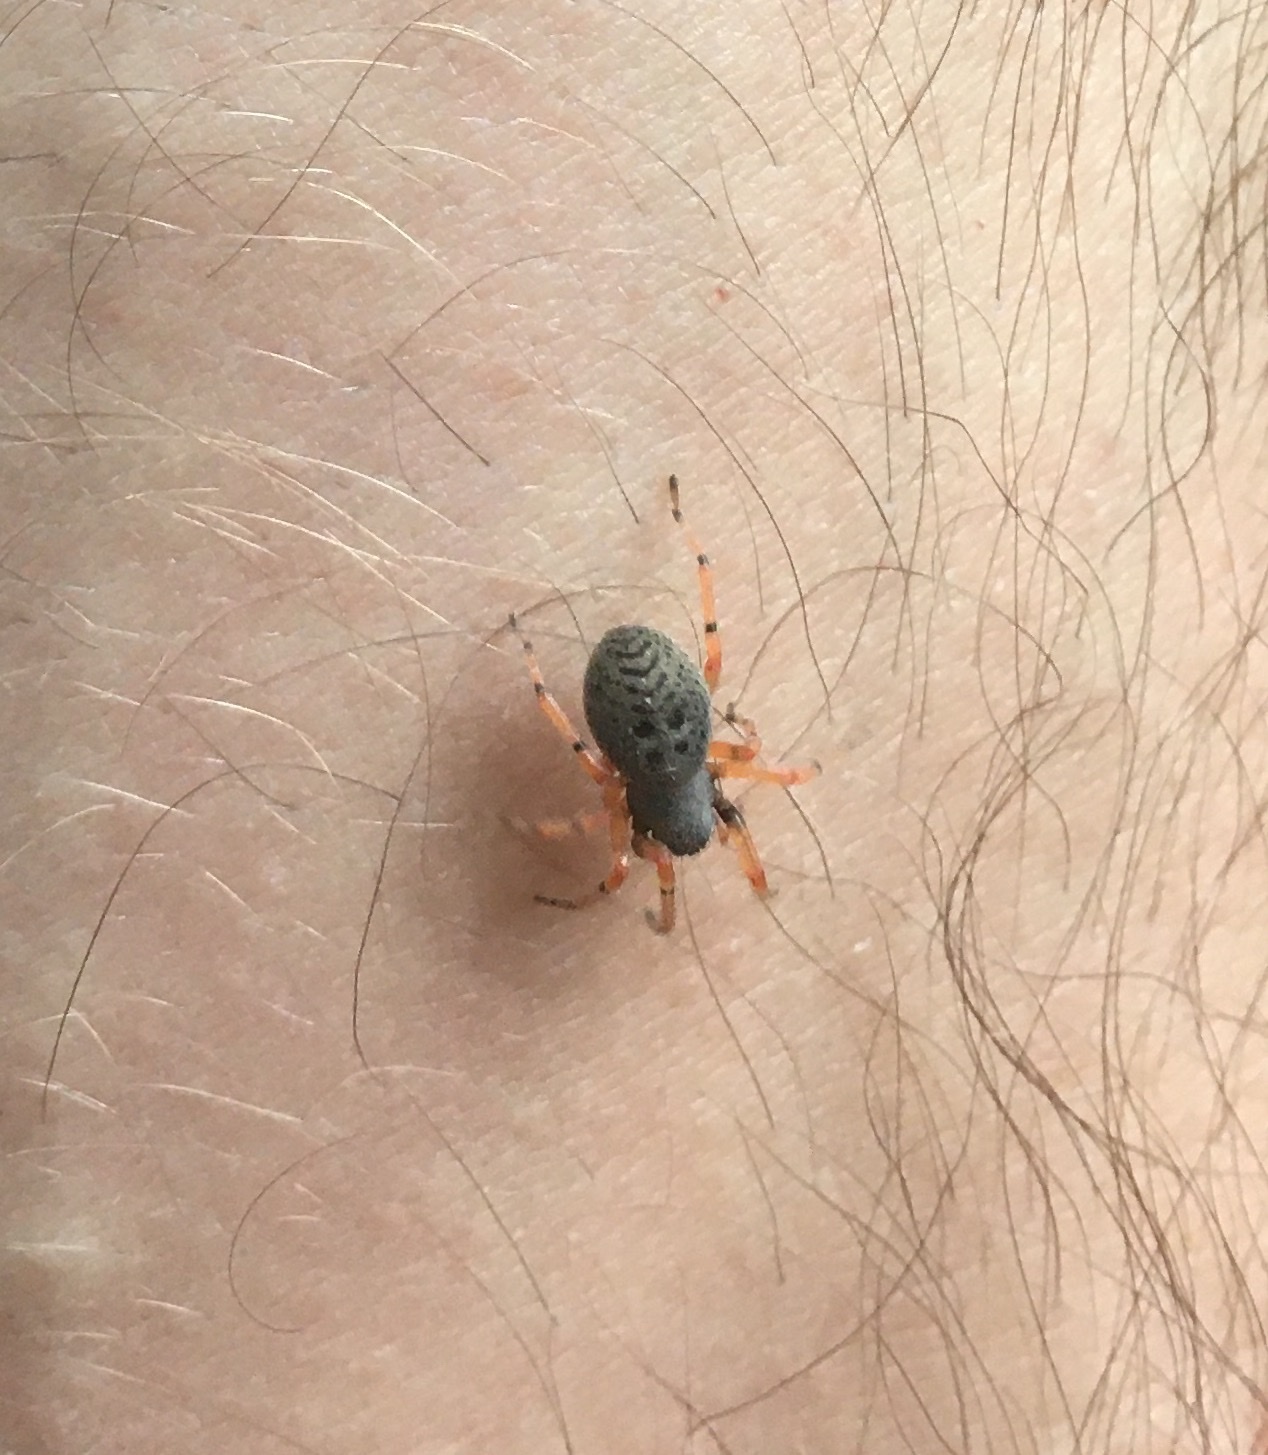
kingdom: Animalia
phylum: Arthropoda
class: Arachnida
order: Araneae
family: Trachelidae
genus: Trachelopachys
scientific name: Trachelopachys cingulipes
